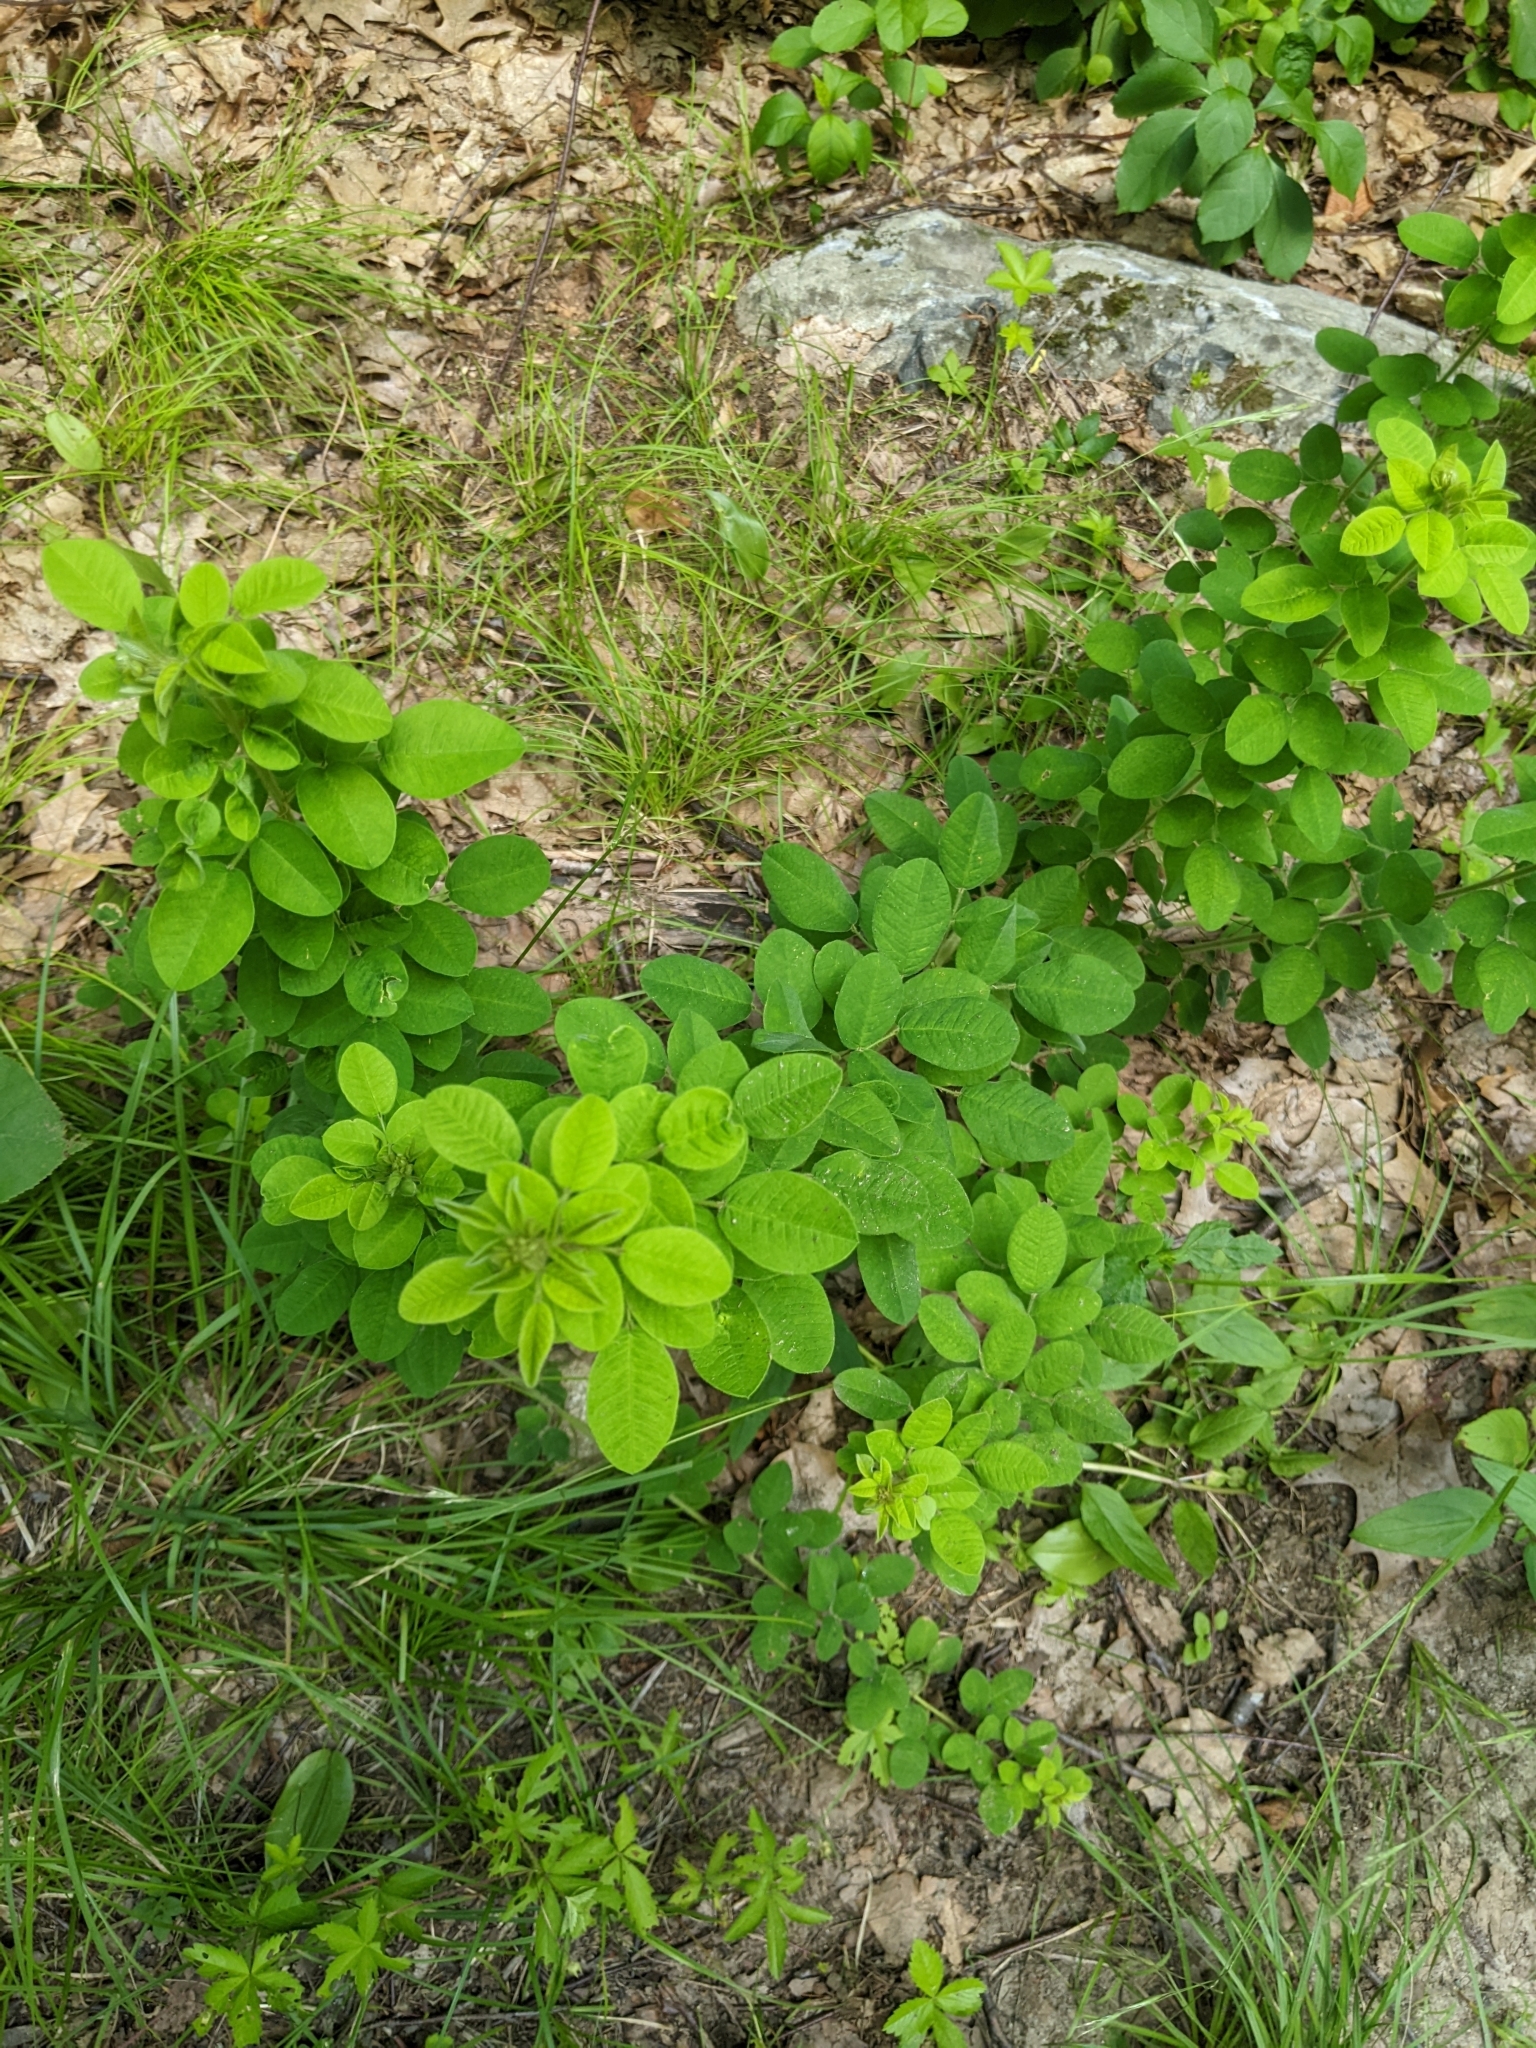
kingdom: Plantae
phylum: Tracheophyta
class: Magnoliopsida
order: Fabales
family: Fabaceae
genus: Lespedeza
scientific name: Lespedeza hirta
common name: Hairy lespedeza
